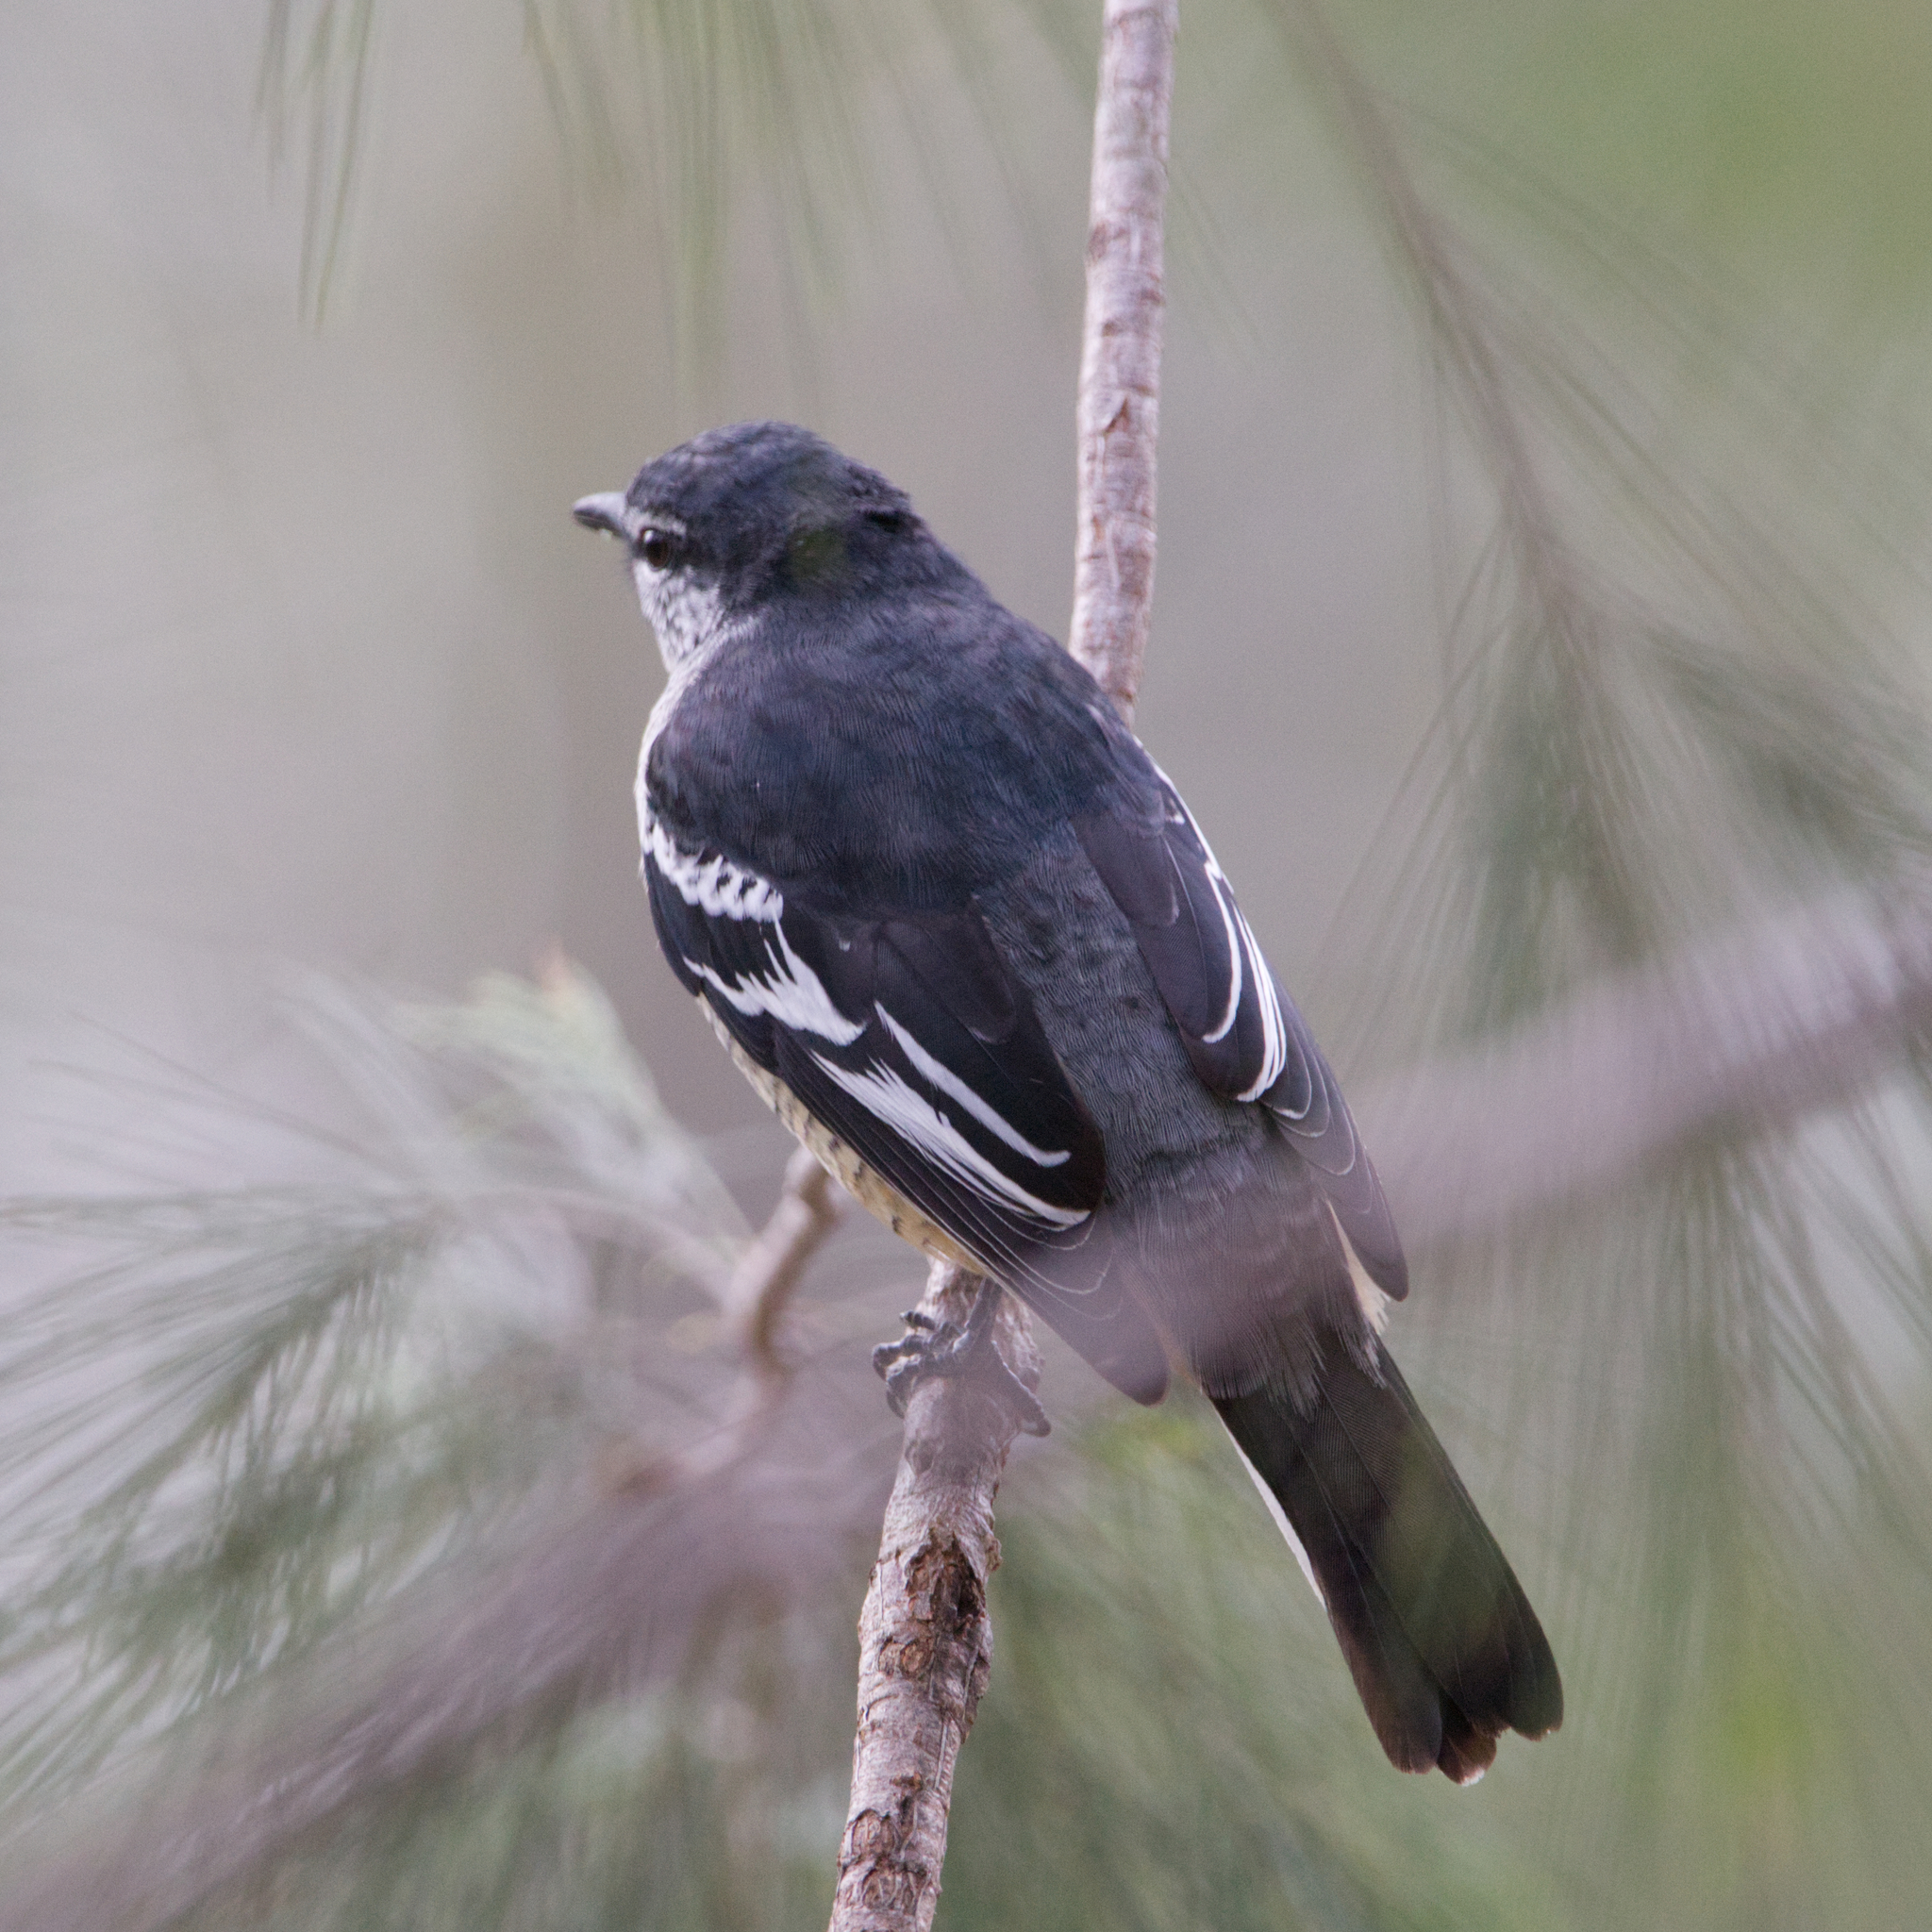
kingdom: Animalia
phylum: Chordata
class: Aves
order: Passeriformes
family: Campephagidae
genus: Lalage
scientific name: Lalage leucomela
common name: Varied triller
